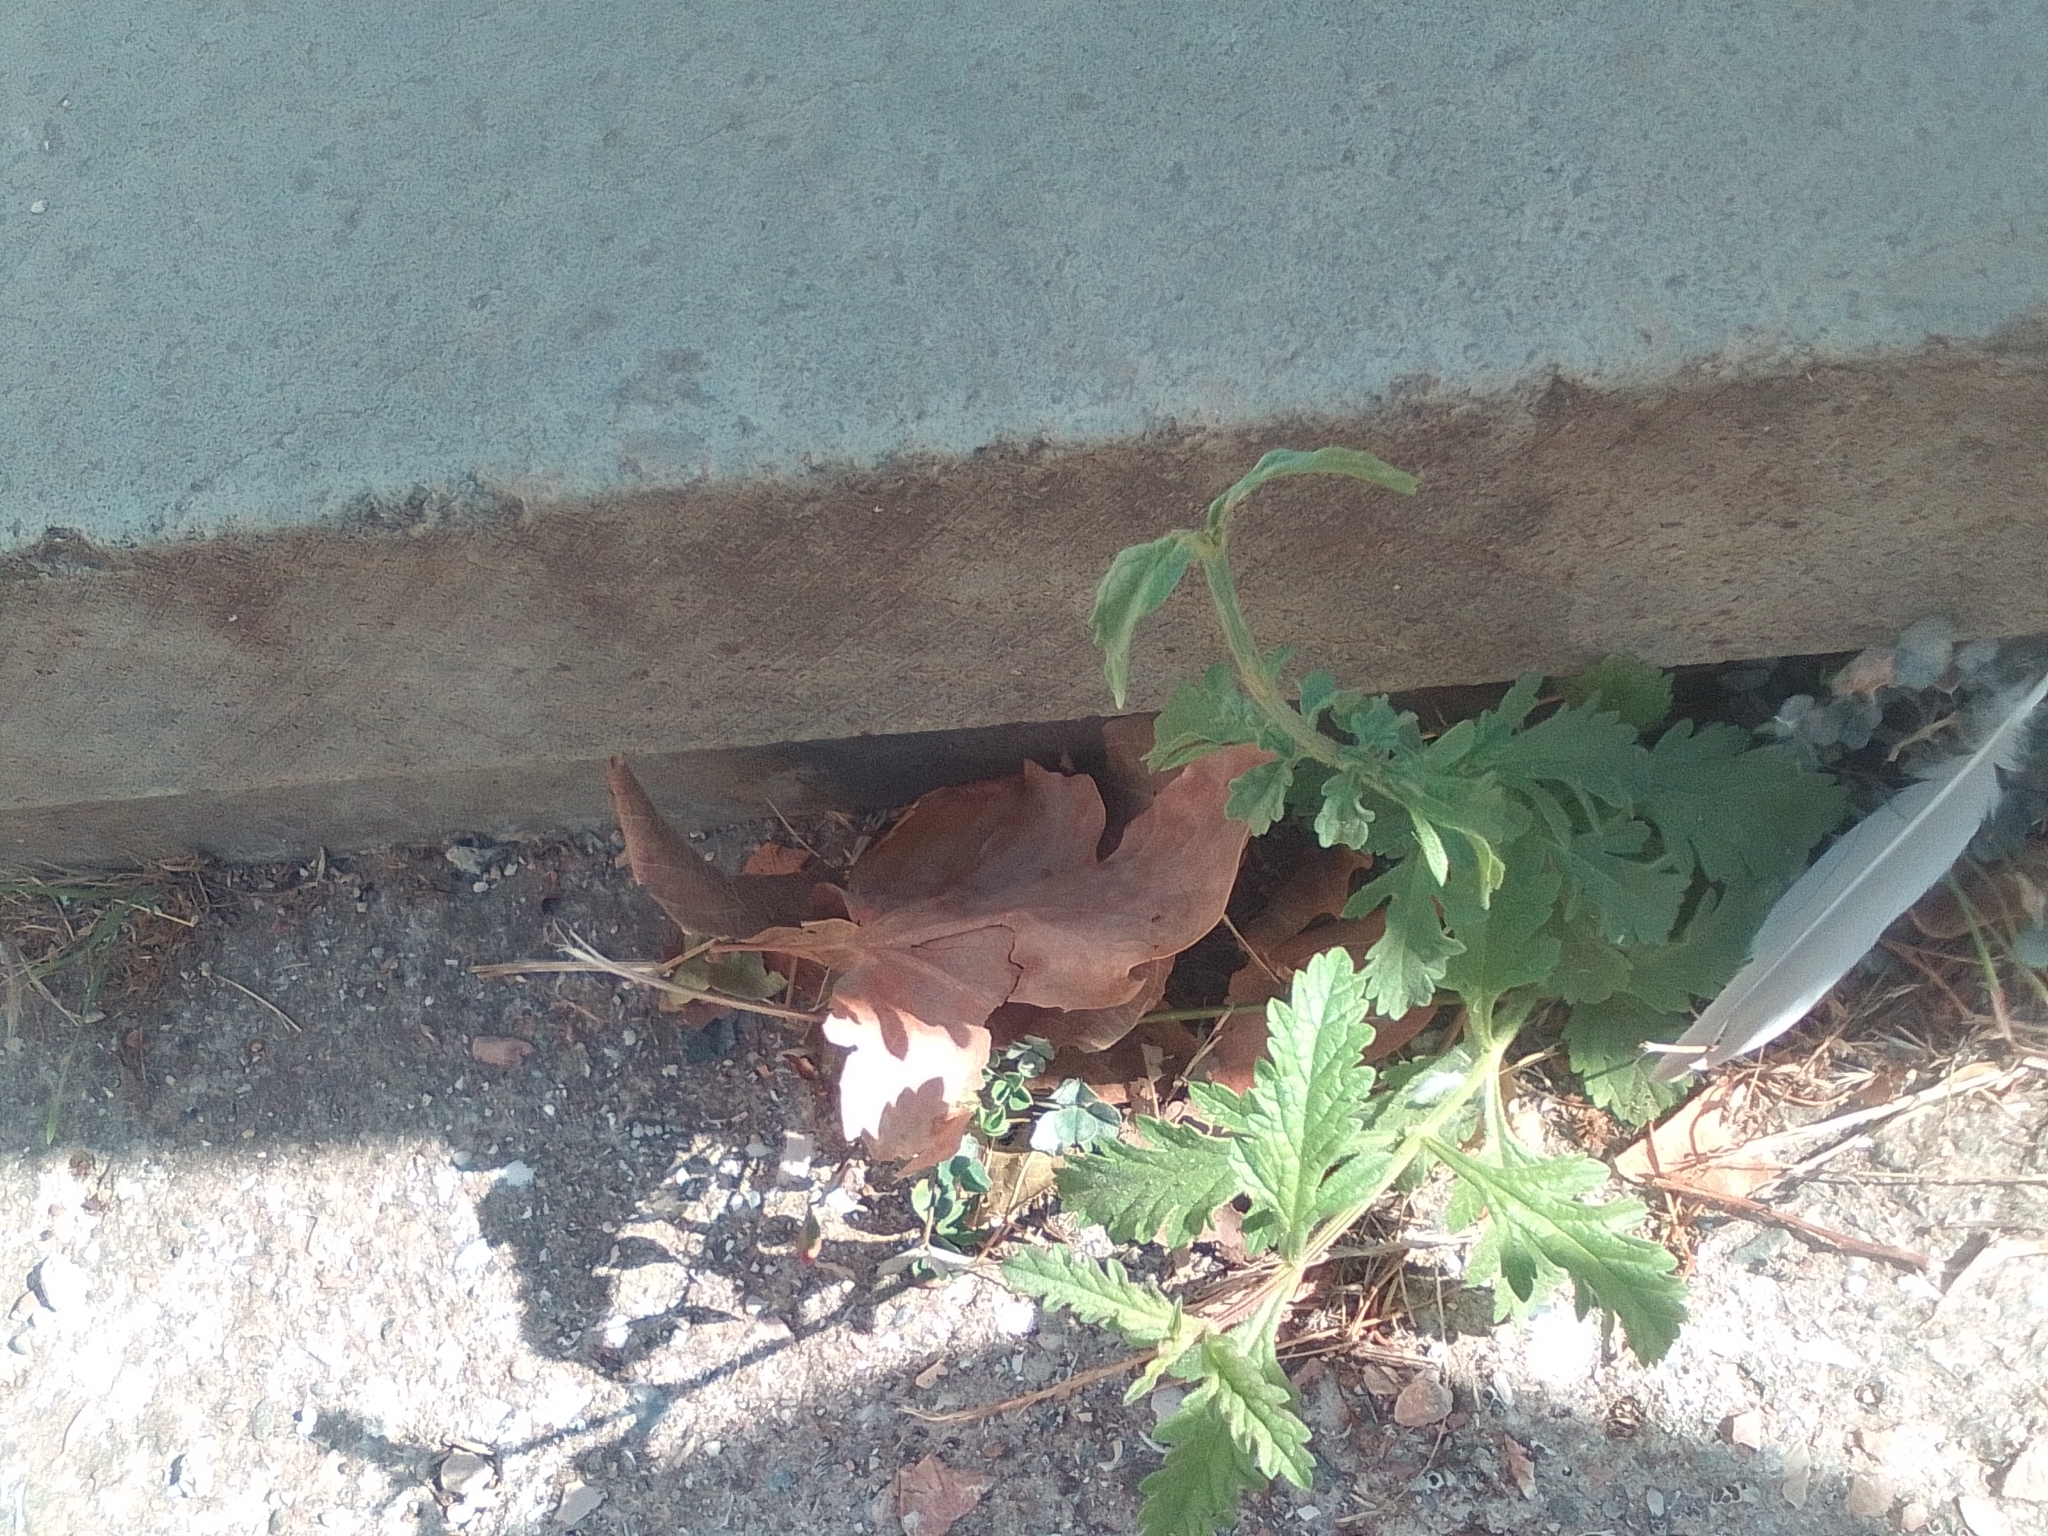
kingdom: Plantae
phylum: Tracheophyta
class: Magnoliopsida
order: Lamiales
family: Verbenaceae
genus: Verbena
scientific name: Verbena officinalis
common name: Vervain
